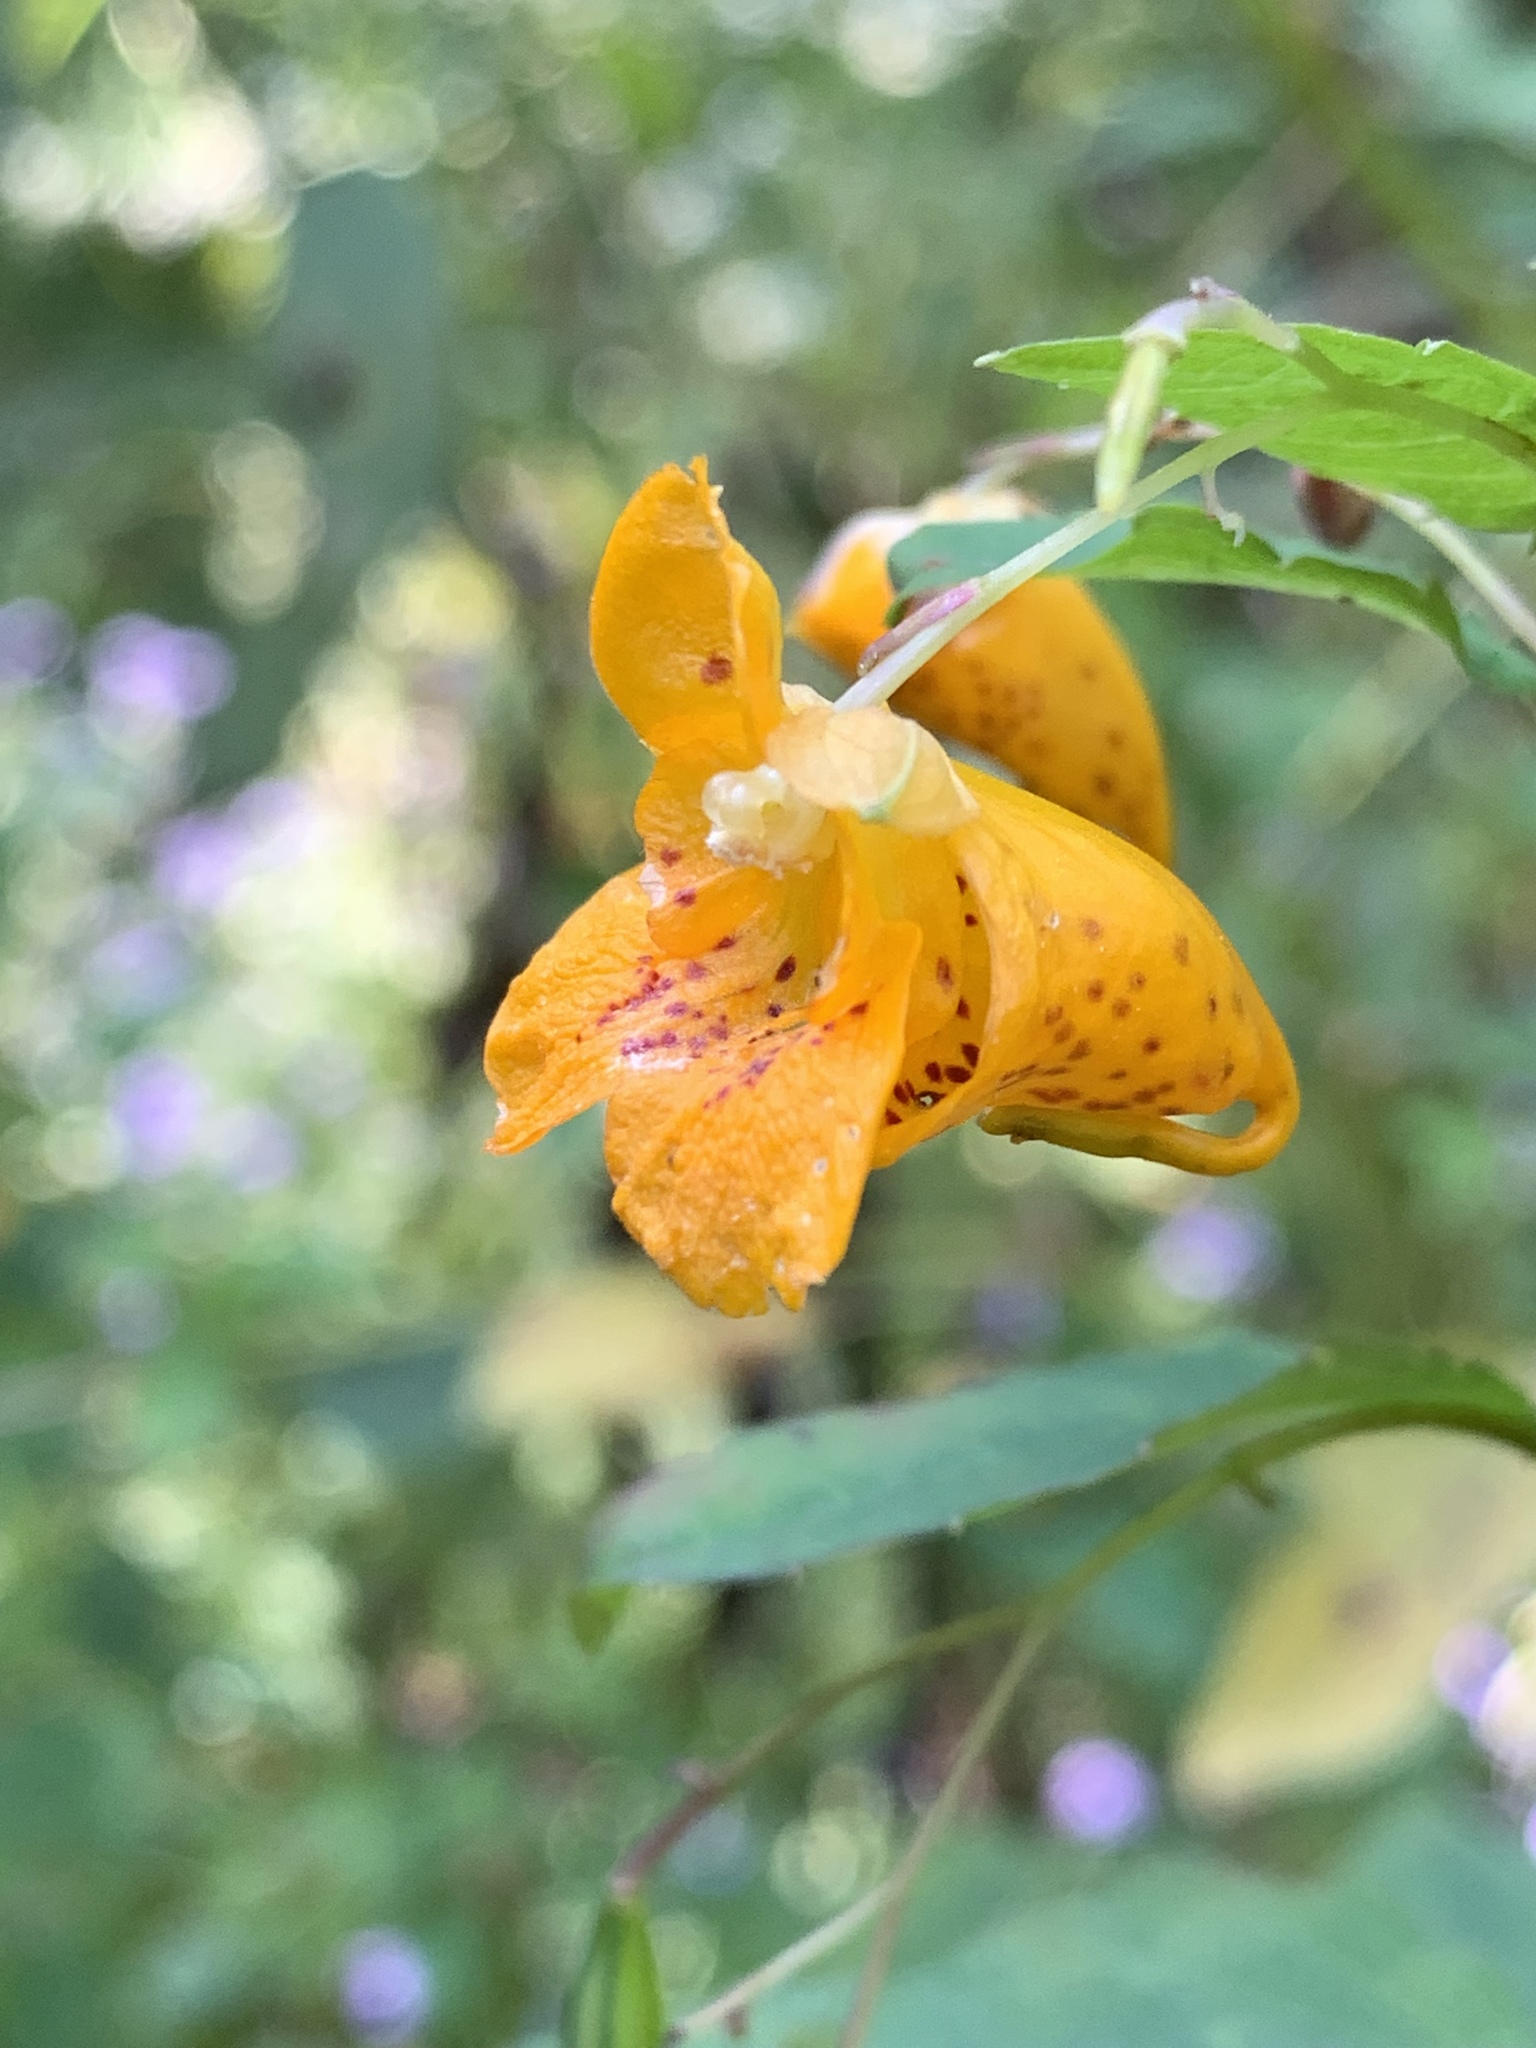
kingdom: Plantae
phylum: Tracheophyta
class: Magnoliopsida
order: Ericales
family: Balsaminaceae
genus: Impatiens
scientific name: Impatiens capensis
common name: Orange balsam
